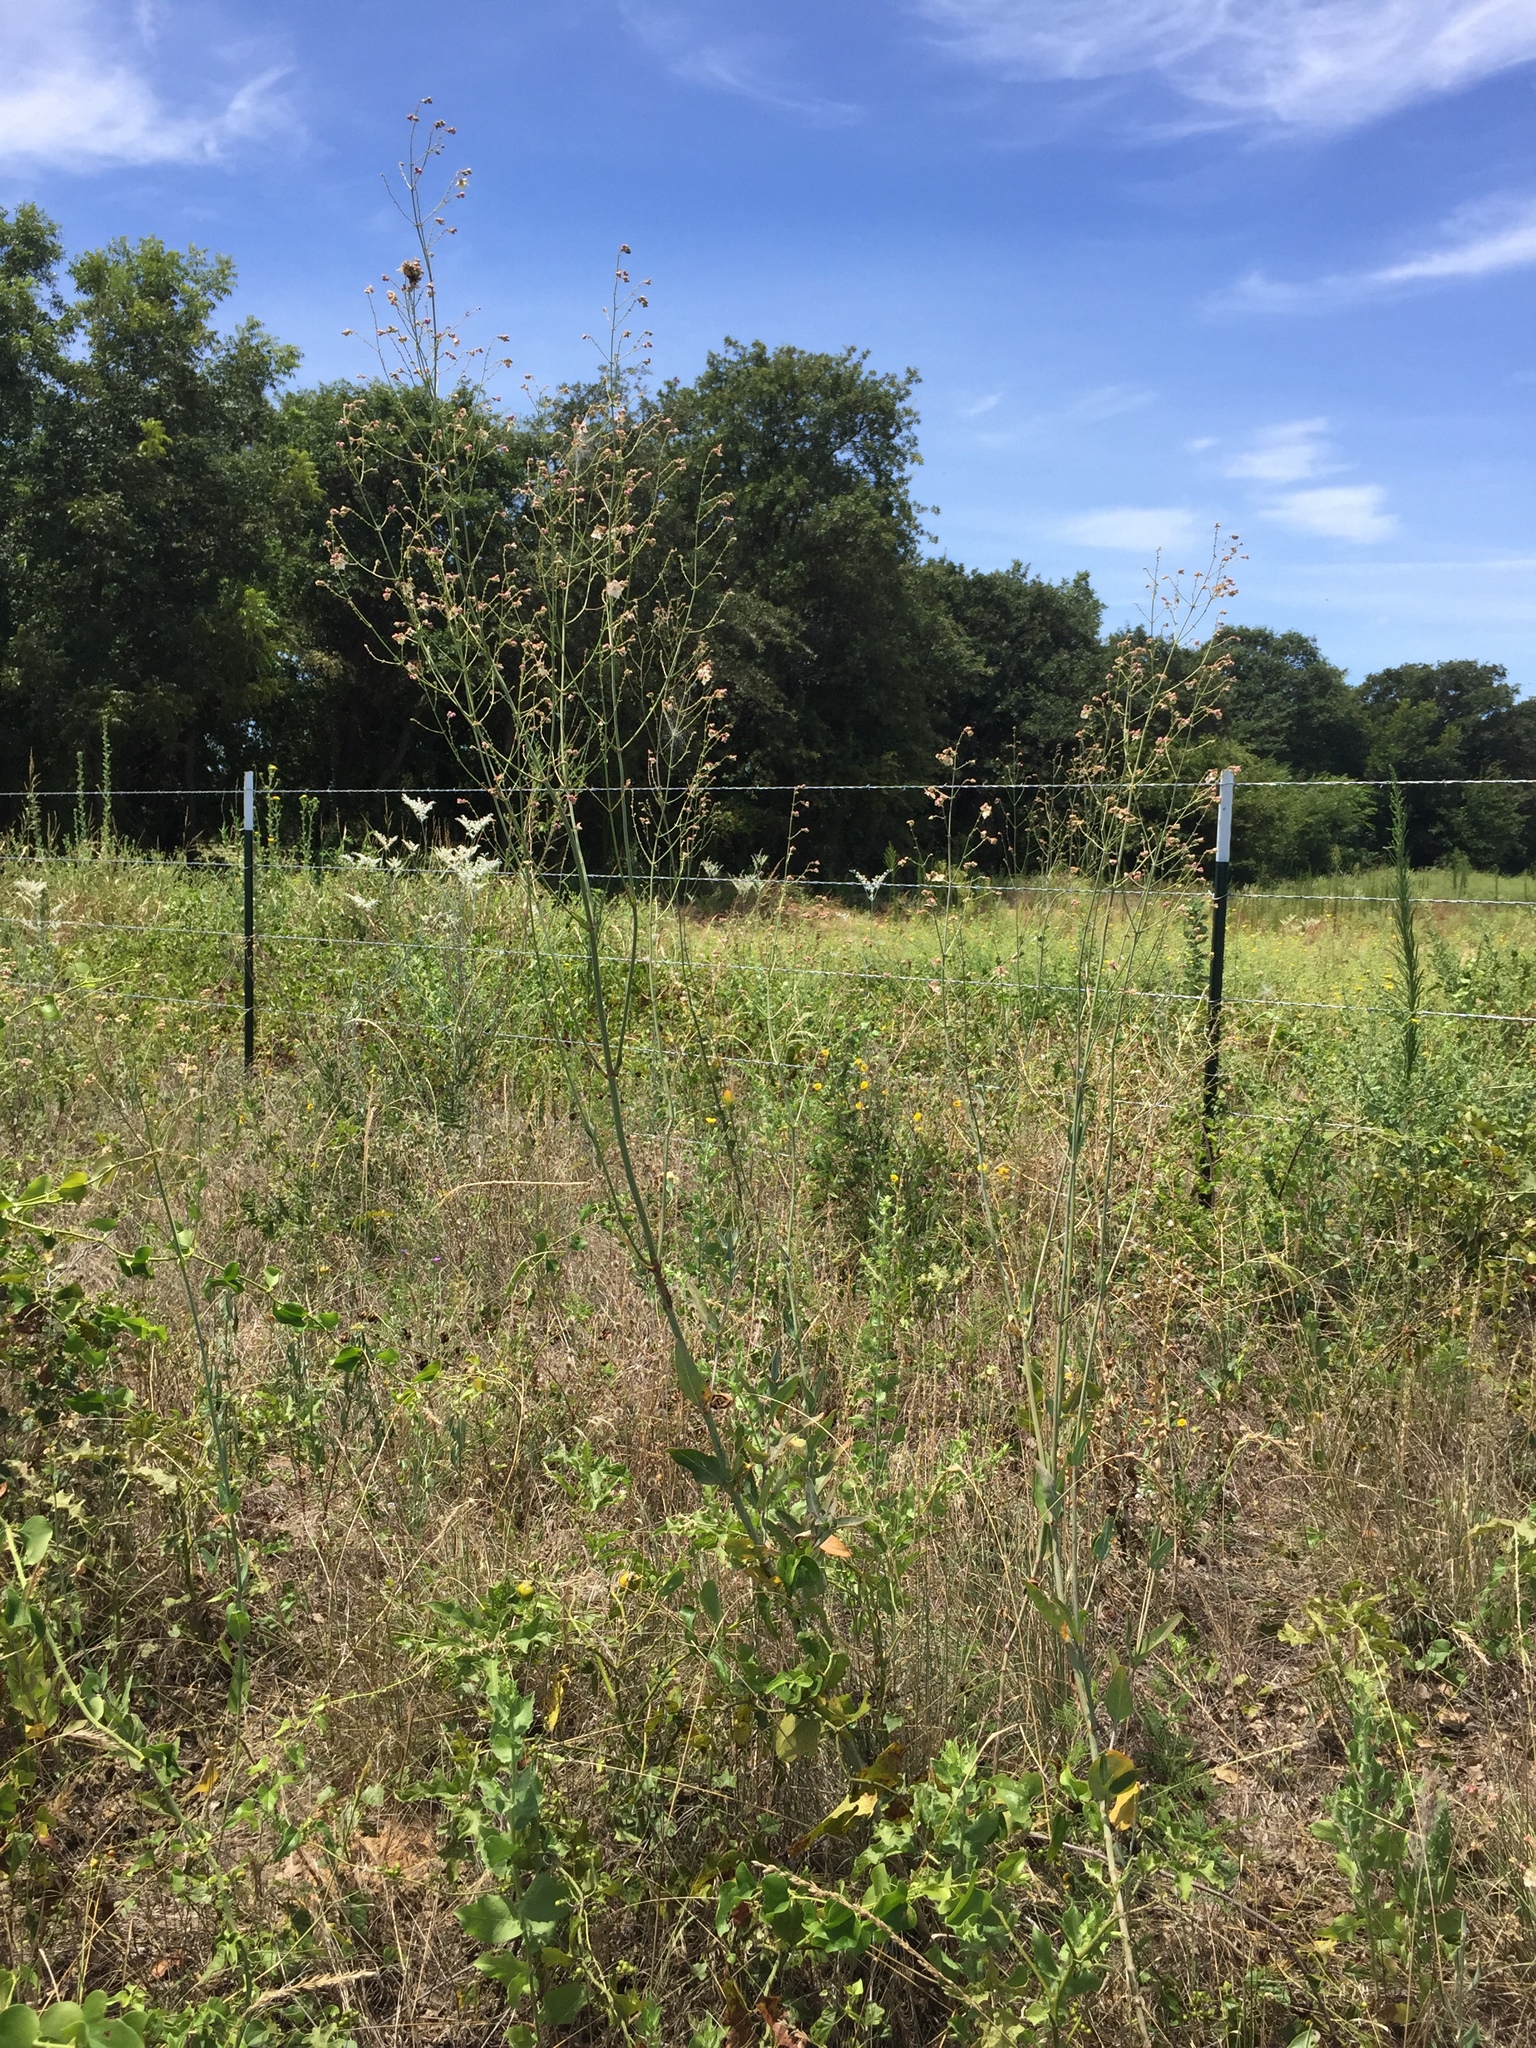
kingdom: Plantae
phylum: Tracheophyta
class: Magnoliopsida
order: Caryophyllales
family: Nyctaginaceae
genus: Mirabilis
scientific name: Mirabilis glabra
